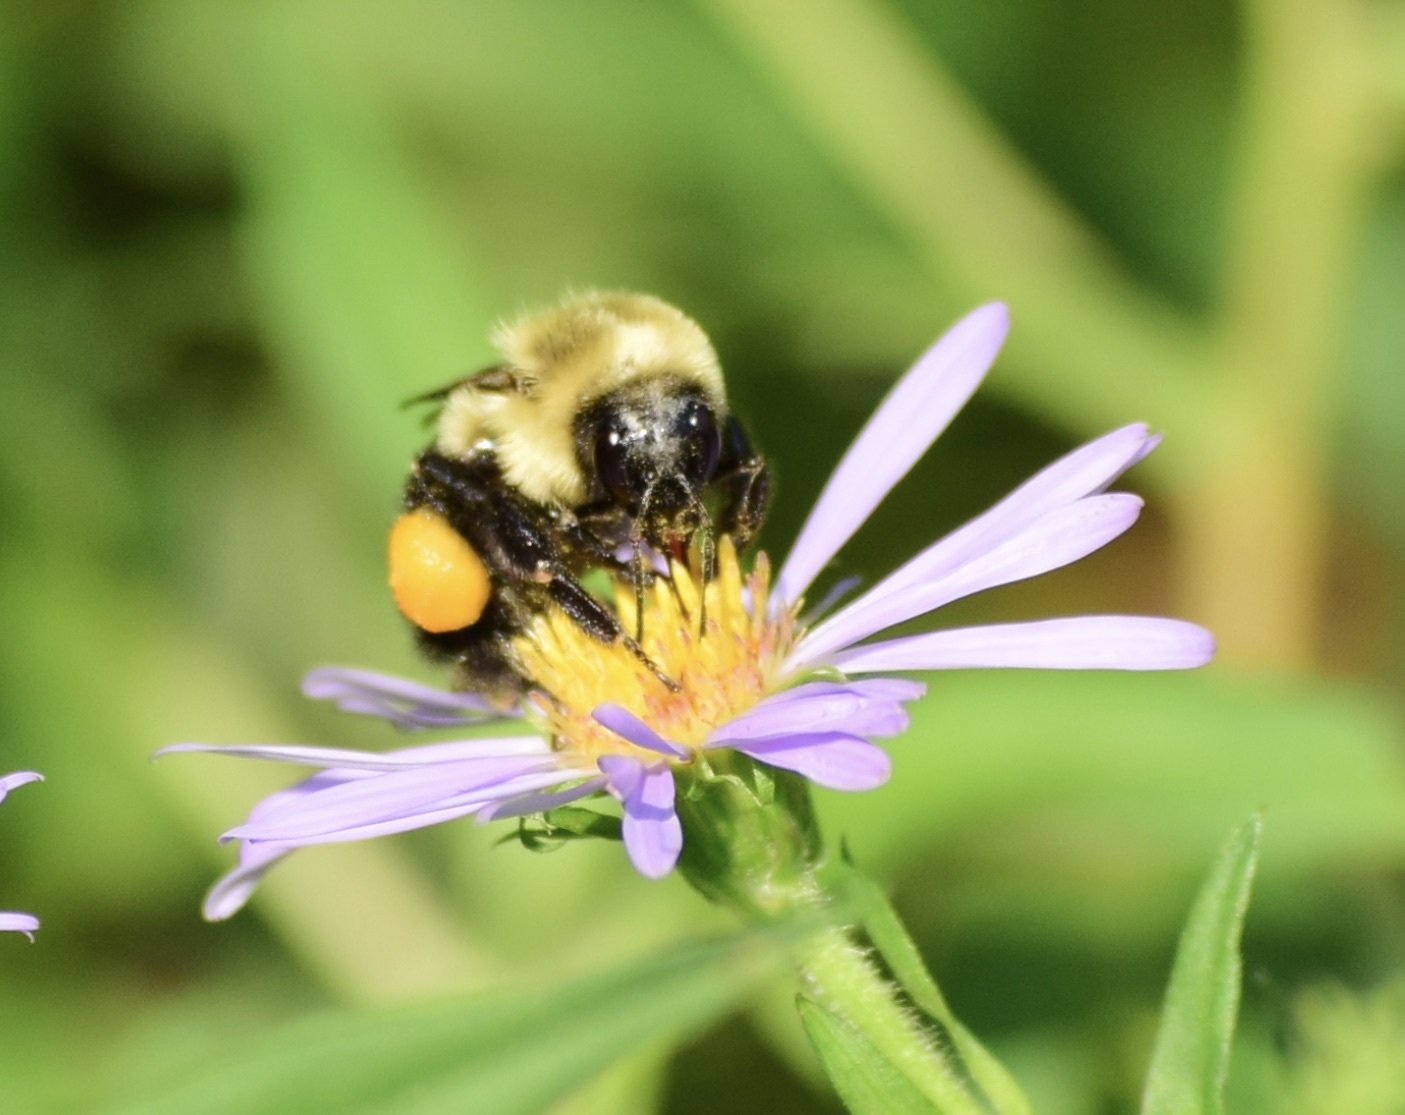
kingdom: Animalia
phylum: Arthropoda
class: Insecta
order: Hymenoptera
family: Apidae
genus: Bombus
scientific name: Bombus impatiens
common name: Common eastern bumble bee
